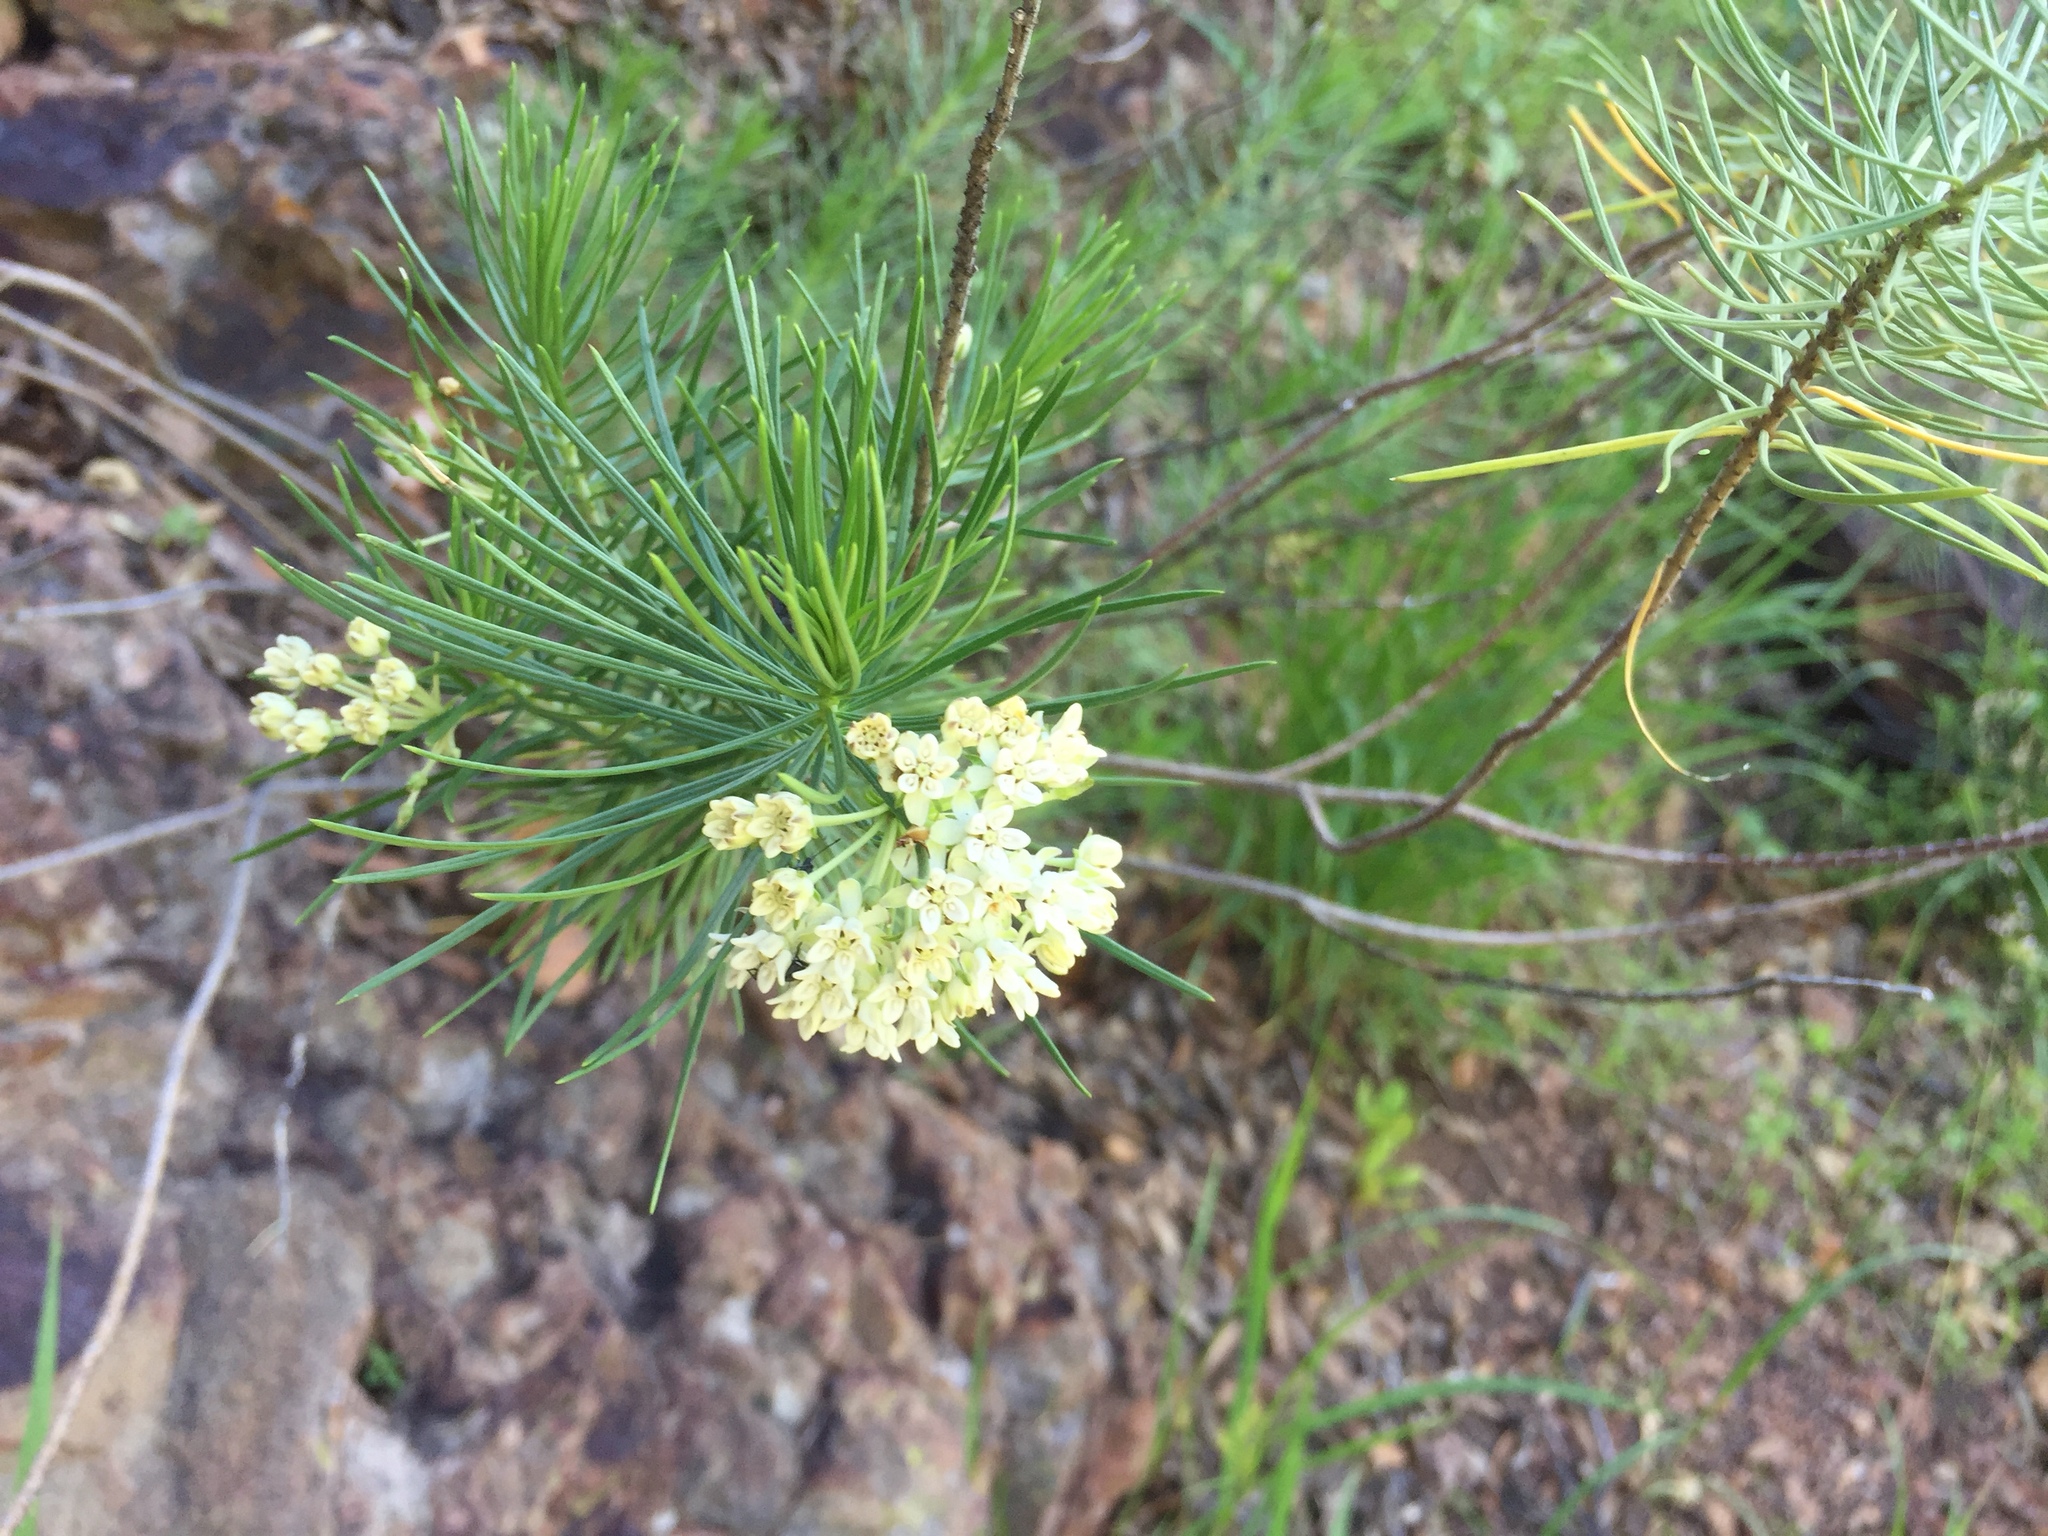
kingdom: Plantae
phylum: Tracheophyta
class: Magnoliopsida
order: Gentianales
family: Apocynaceae
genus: Asclepias
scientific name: Asclepias linaria
